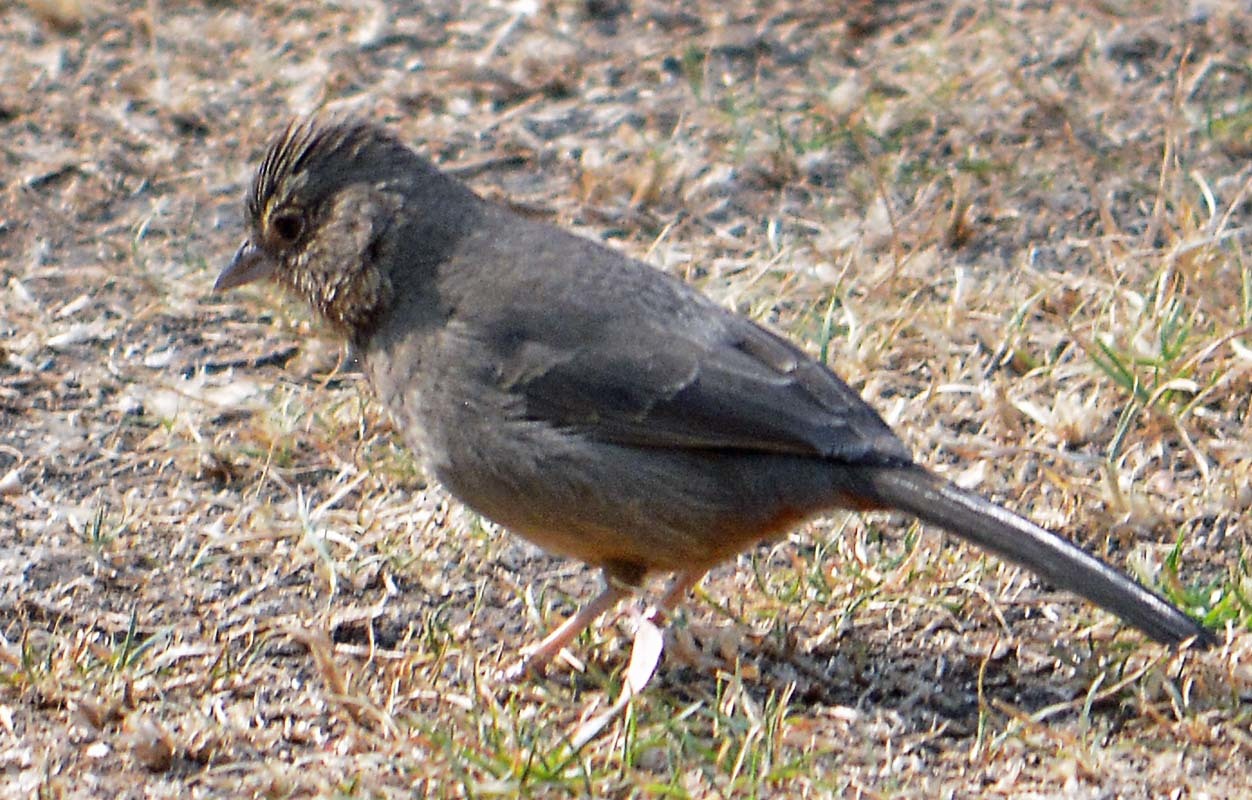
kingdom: Animalia
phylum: Chordata
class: Aves
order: Passeriformes
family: Passerellidae
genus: Melozone
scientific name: Melozone fusca
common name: Canyon towhee
